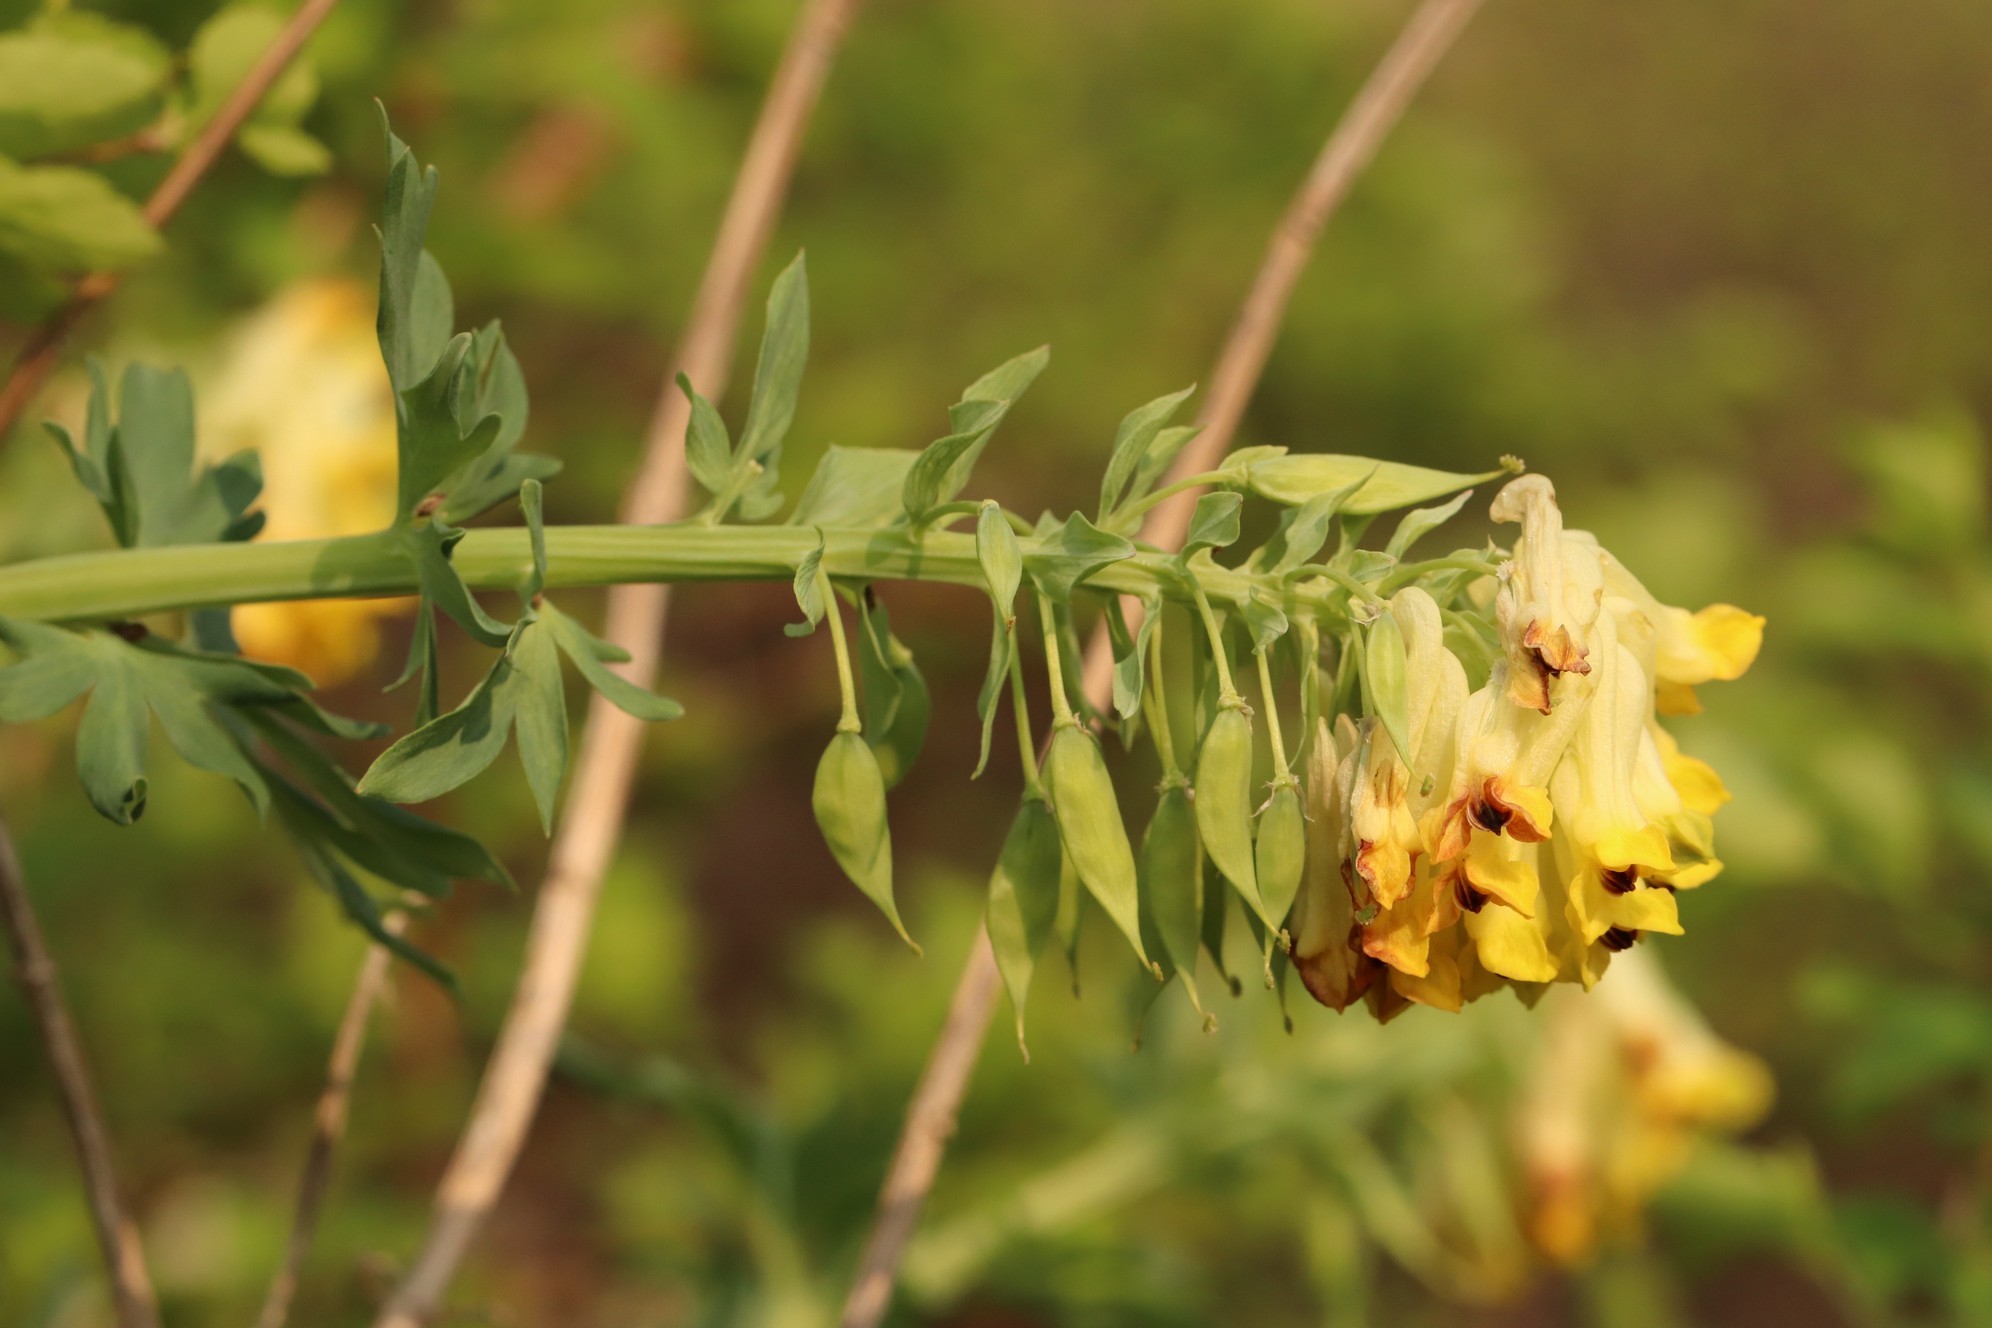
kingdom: Plantae
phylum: Tracheophyta
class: Magnoliopsida
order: Ranunculales
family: Papaveraceae
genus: Corydalis
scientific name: Corydalis nobilis
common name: Siberian corydalis
